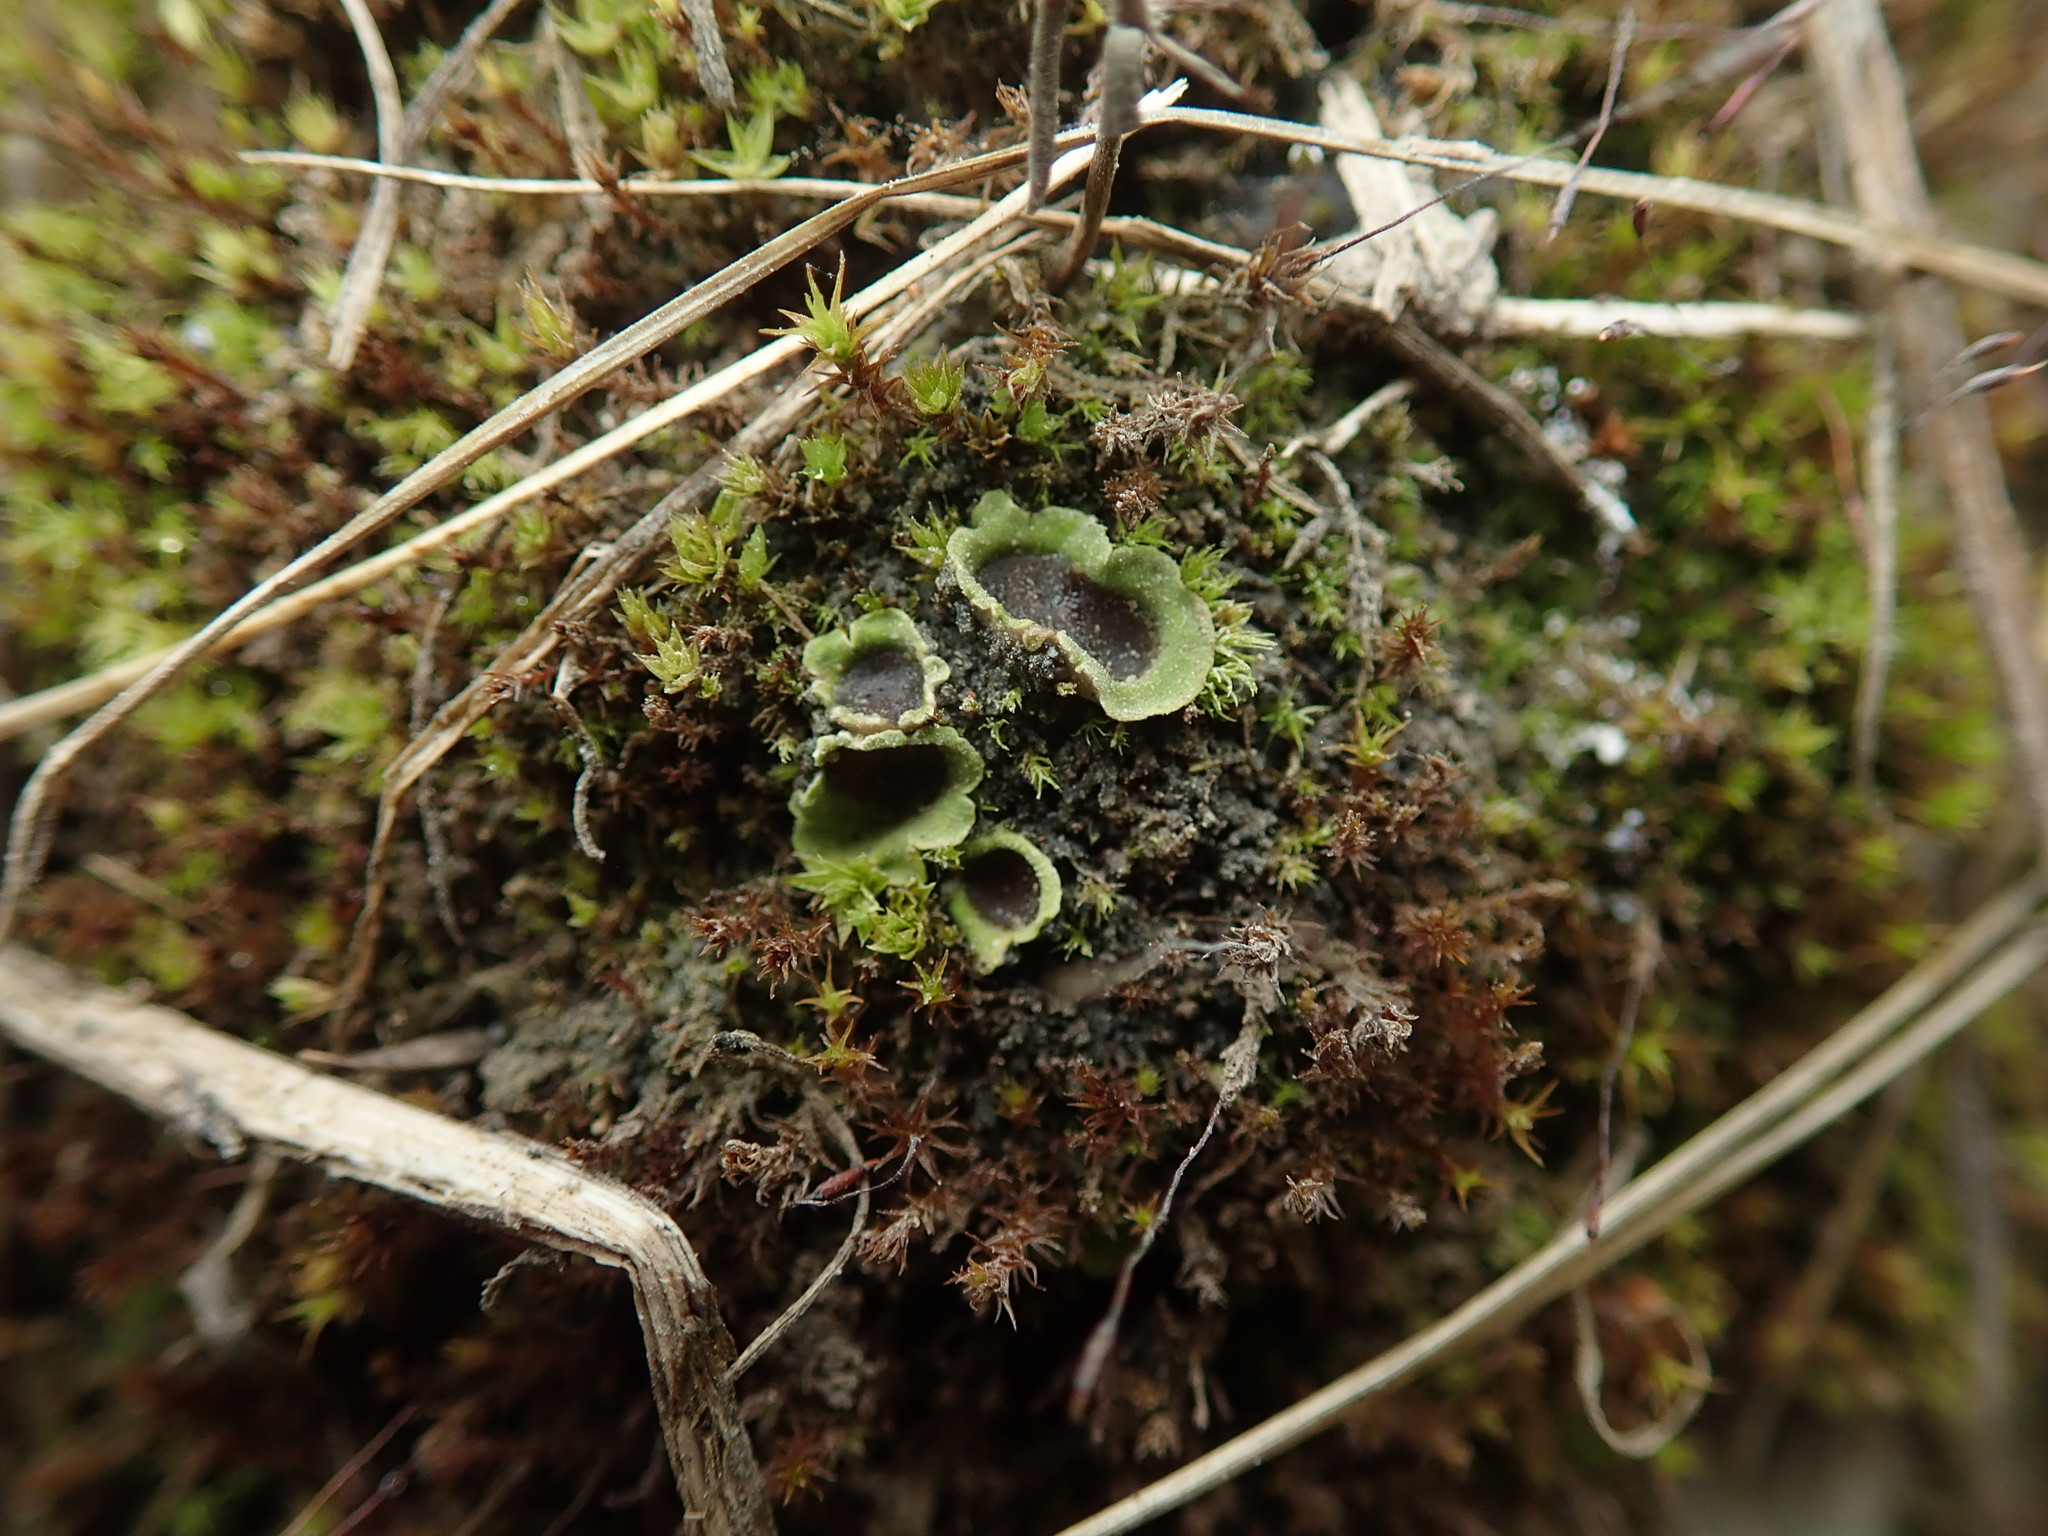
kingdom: Fungi
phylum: Ascomycota
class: Lecanoromycetes
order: Peltigerales
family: Peltigeraceae
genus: Solorina
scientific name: Solorina spongiosa
